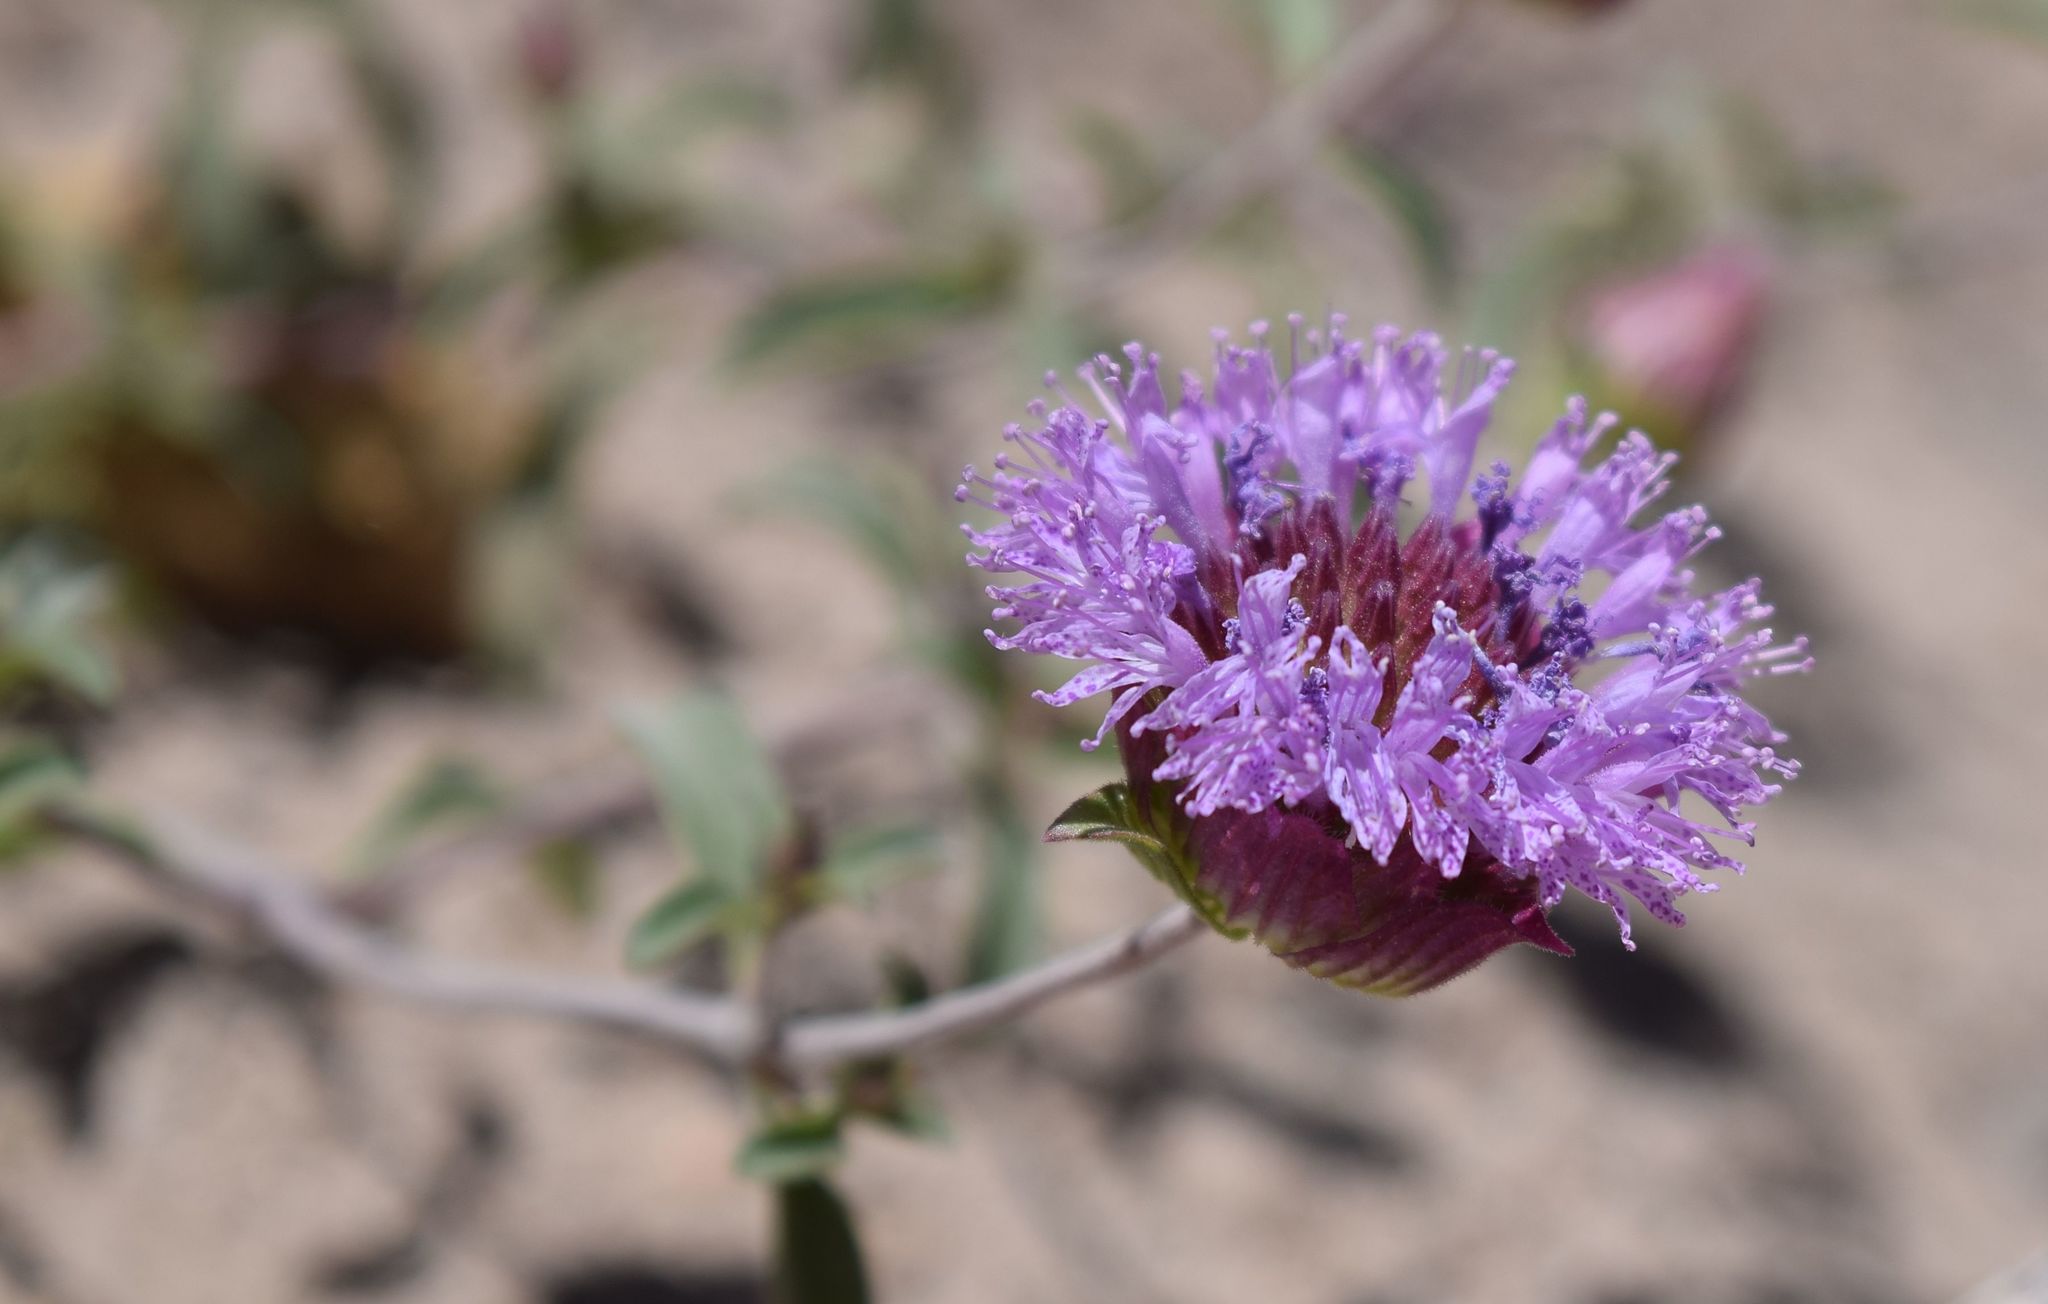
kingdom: Plantae
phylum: Tracheophyta
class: Magnoliopsida
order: Lamiales
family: Lamiaceae
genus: Monardella
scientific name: Monardella breweri
